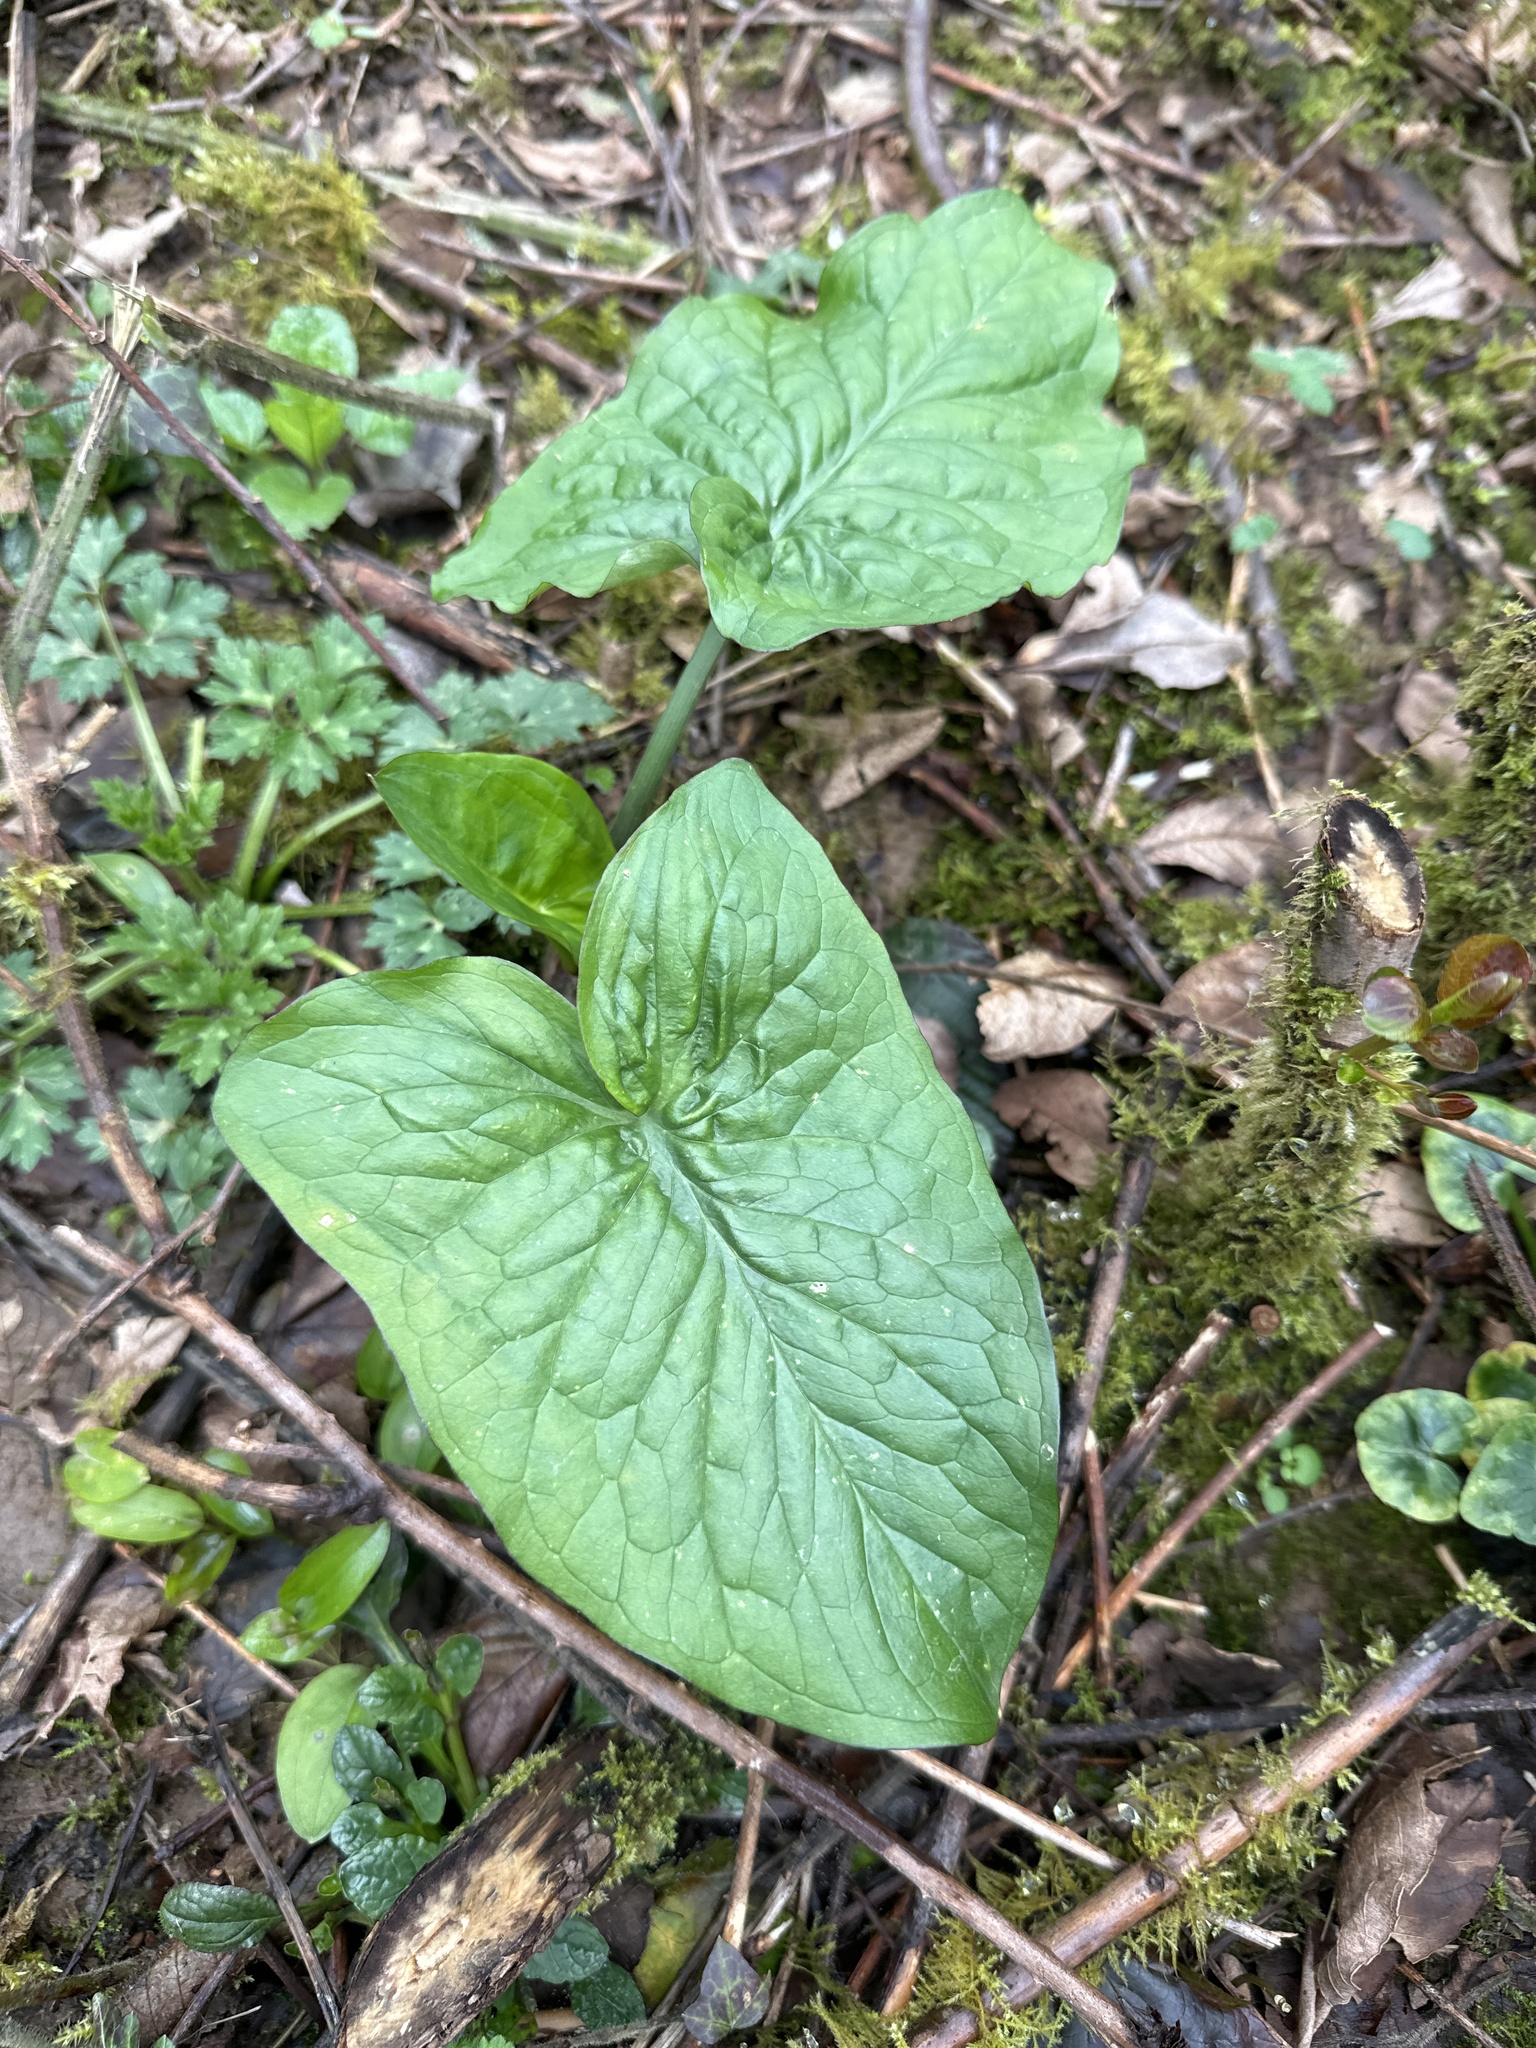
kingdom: Plantae
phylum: Tracheophyta
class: Liliopsida
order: Alismatales
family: Araceae
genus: Arum
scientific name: Arum maculatum
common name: Lords-and-ladies
